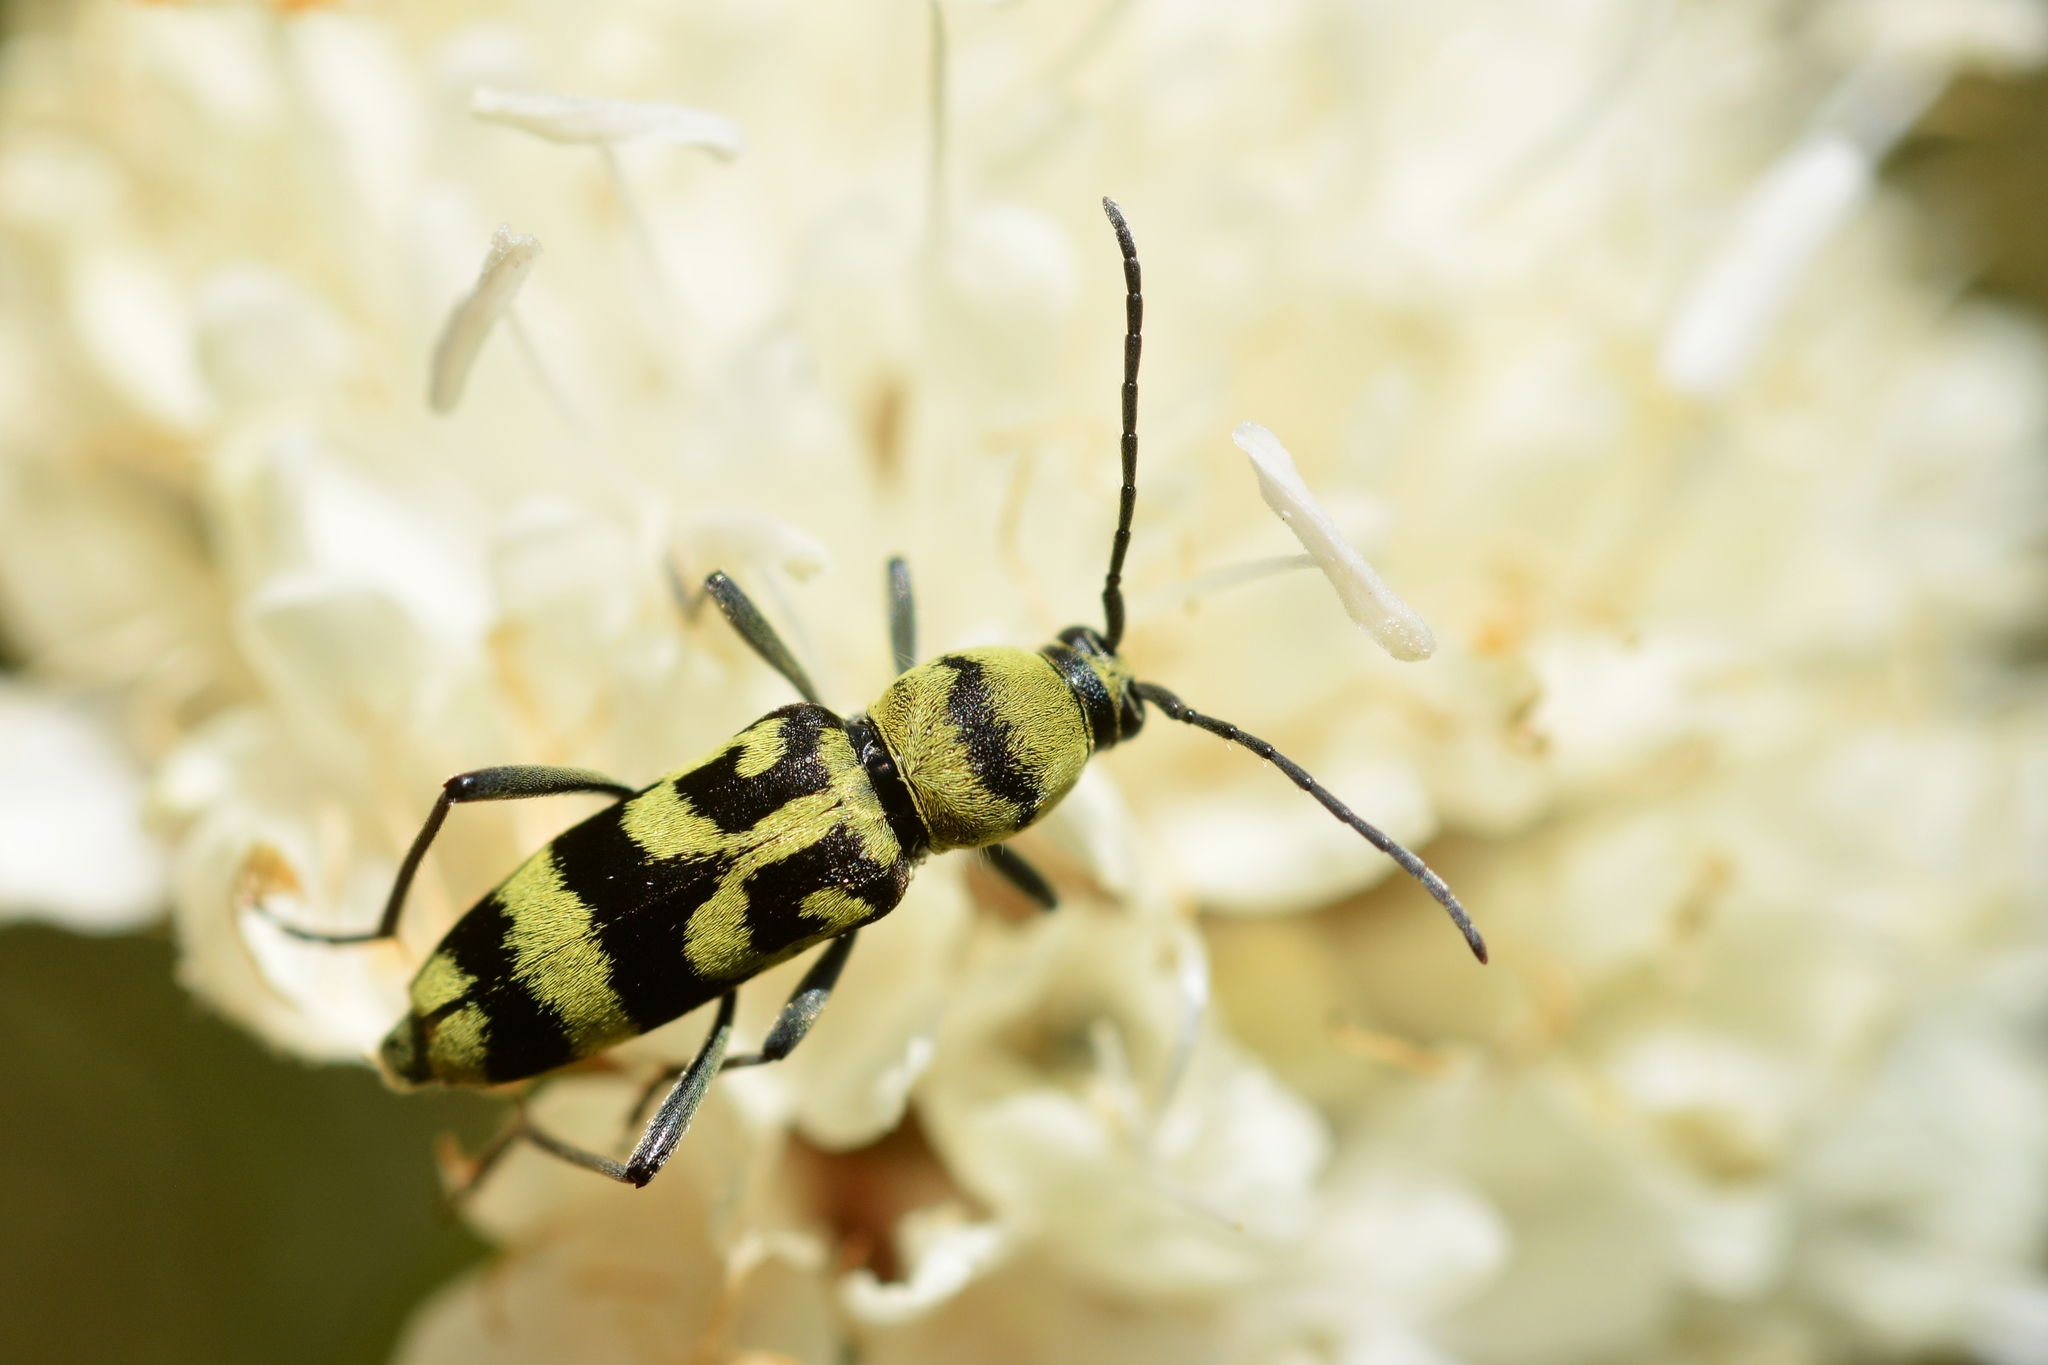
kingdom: Animalia
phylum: Arthropoda
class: Insecta
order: Coleoptera
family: Cerambycidae
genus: Chlorophorus
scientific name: Chlorophorus varius
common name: Grape wood borer
